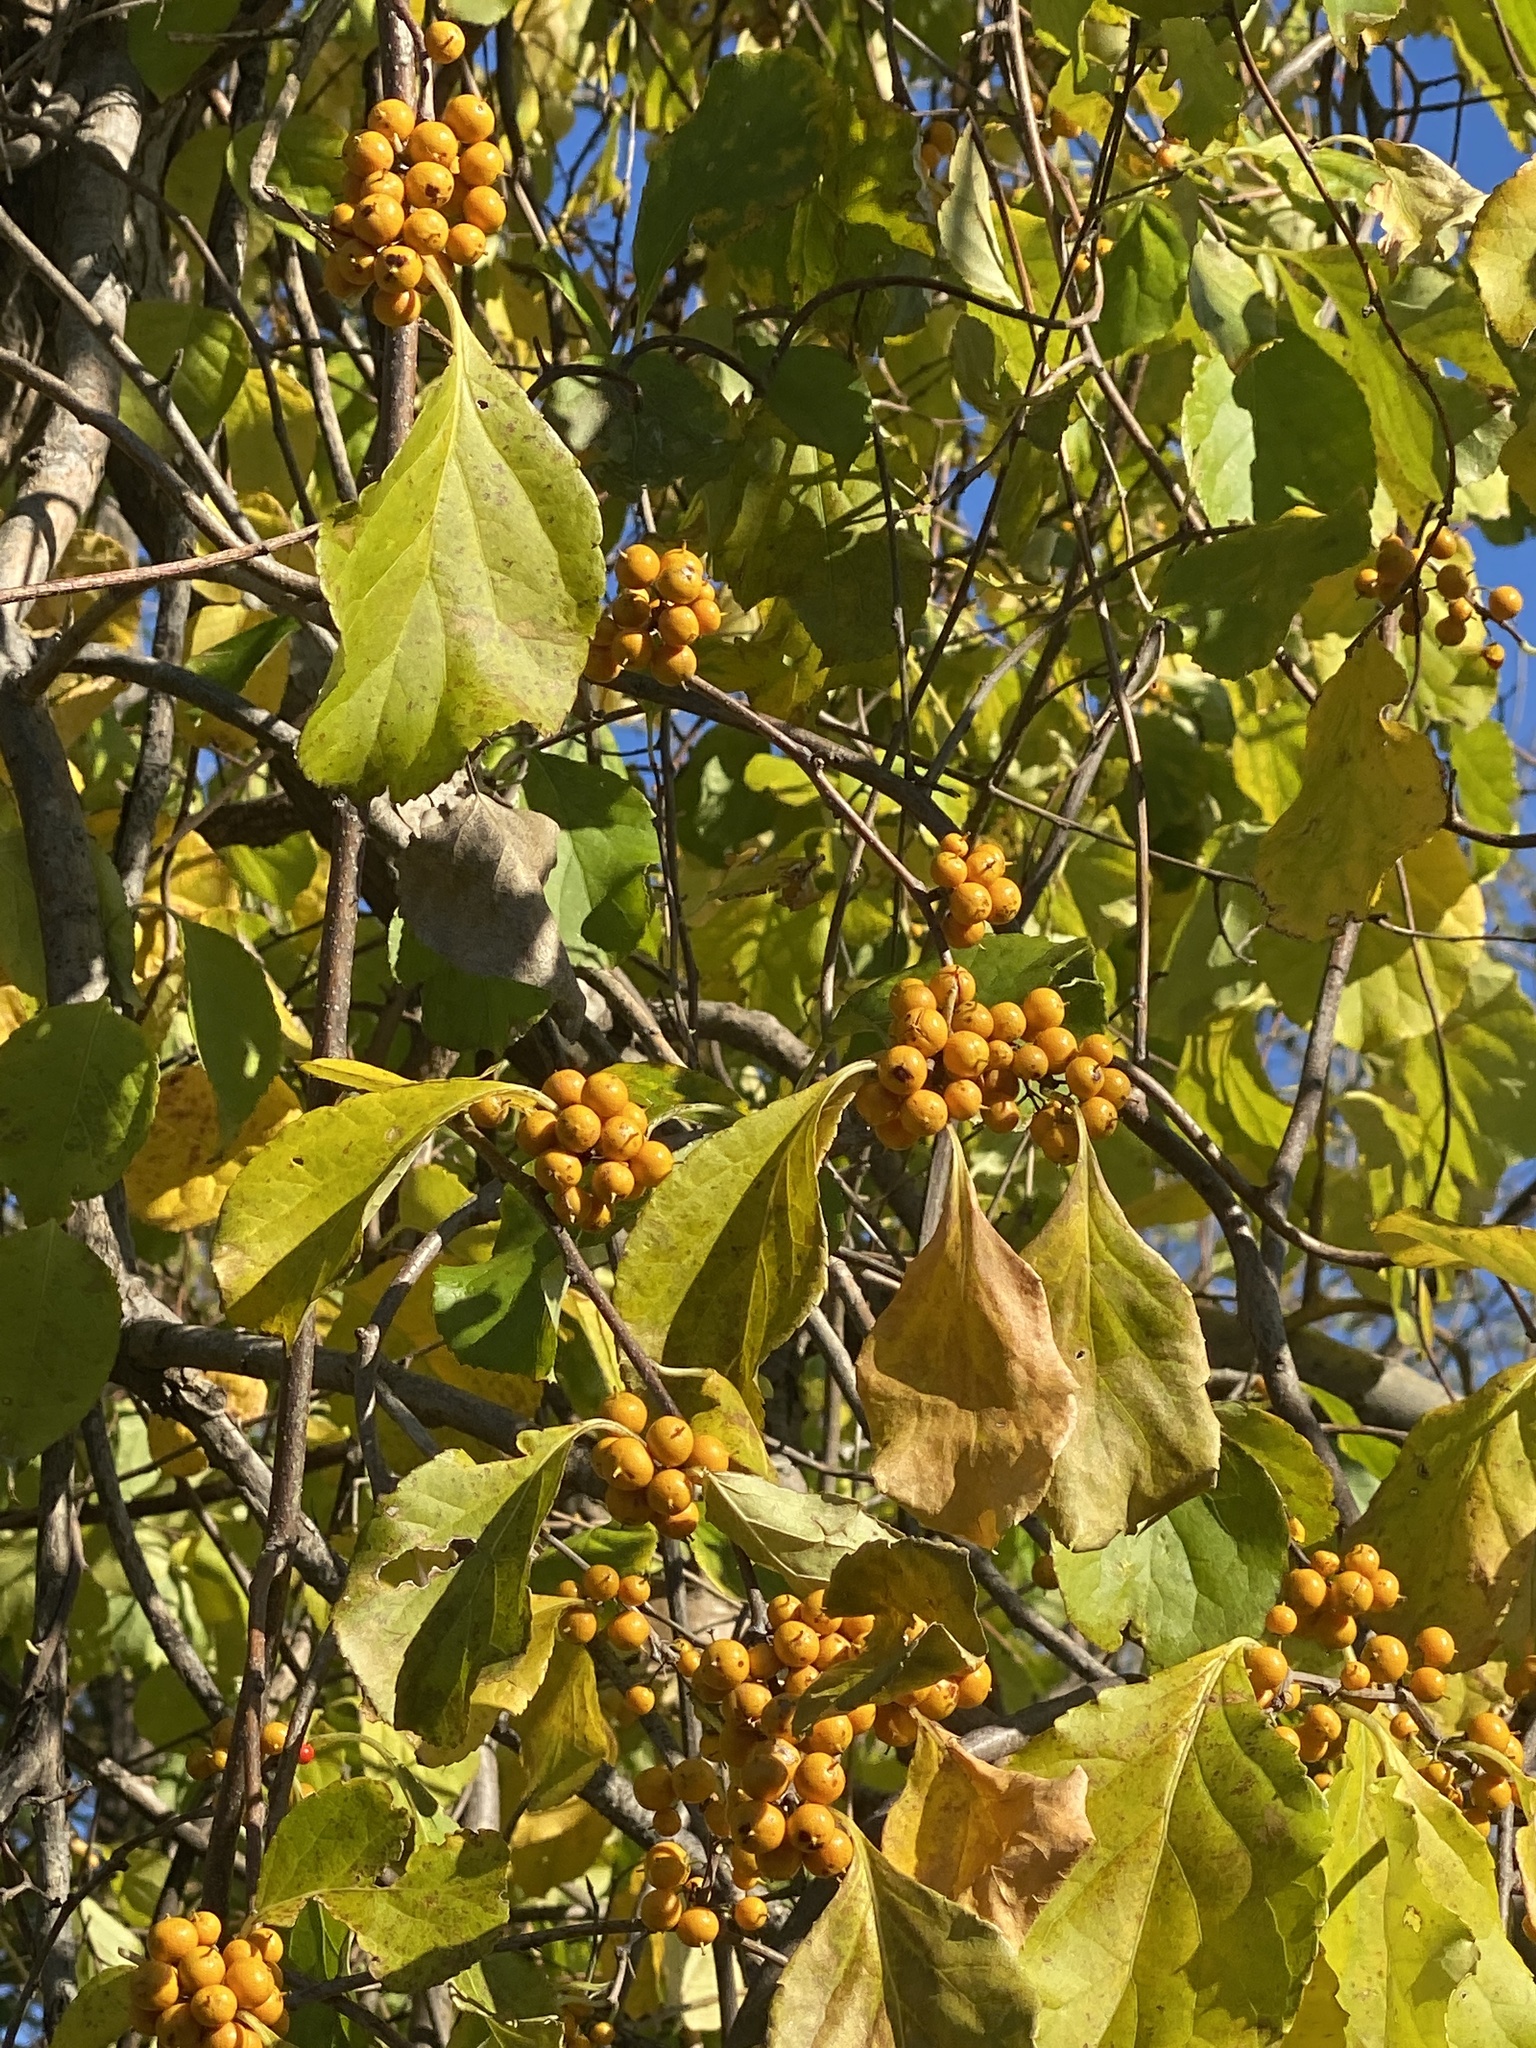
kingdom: Plantae
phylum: Tracheophyta
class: Magnoliopsida
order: Celastrales
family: Celastraceae
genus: Celastrus
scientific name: Celastrus orbiculatus
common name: Oriental bittersweet
